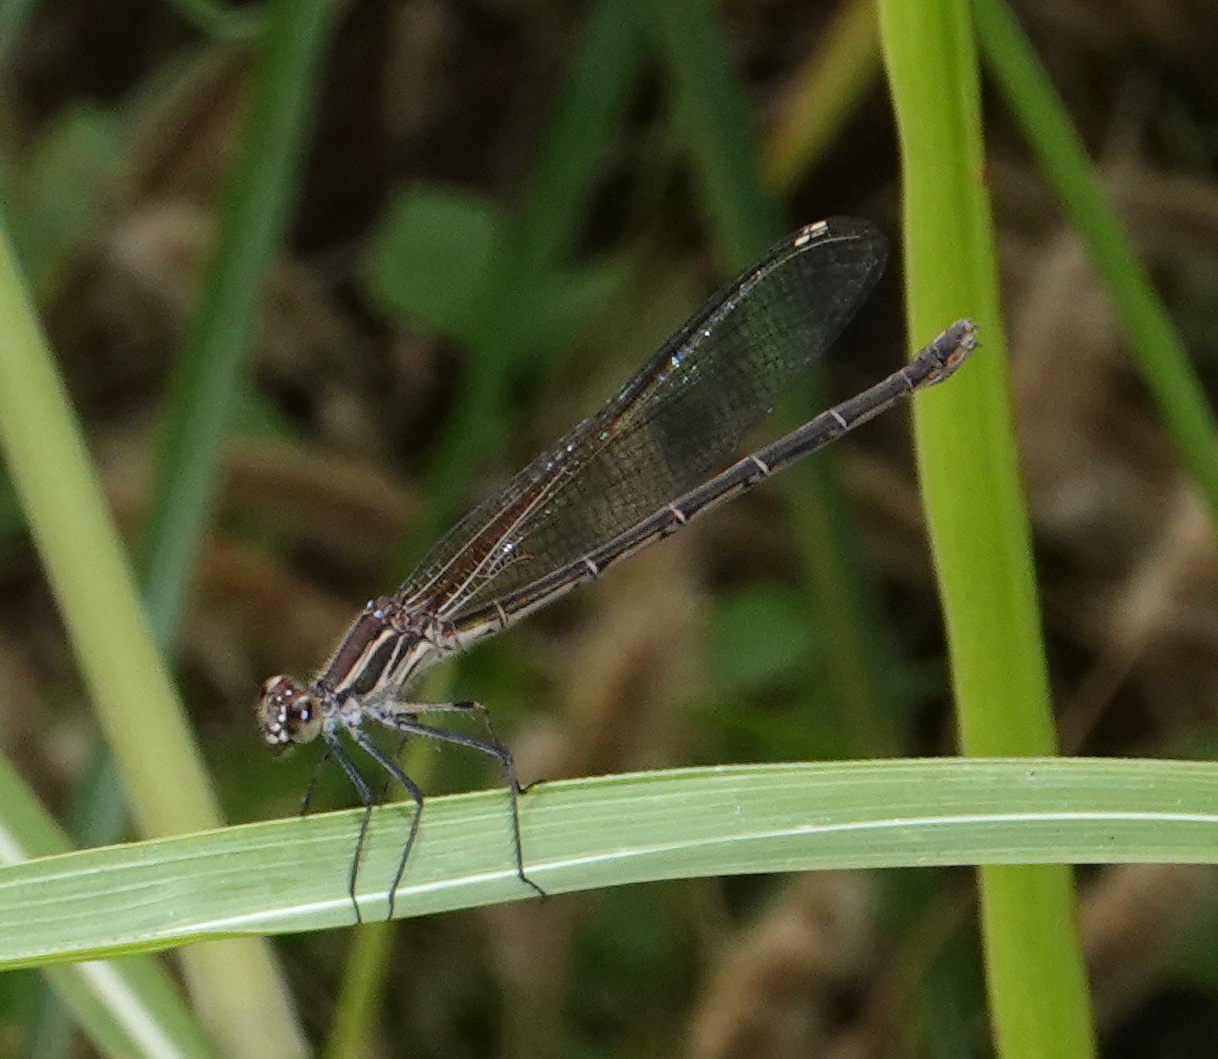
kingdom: Animalia
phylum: Arthropoda
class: Insecta
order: Odonata
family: Calopterygidae
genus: Hetaerina
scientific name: Hetaerina americana
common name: American rubyspot
